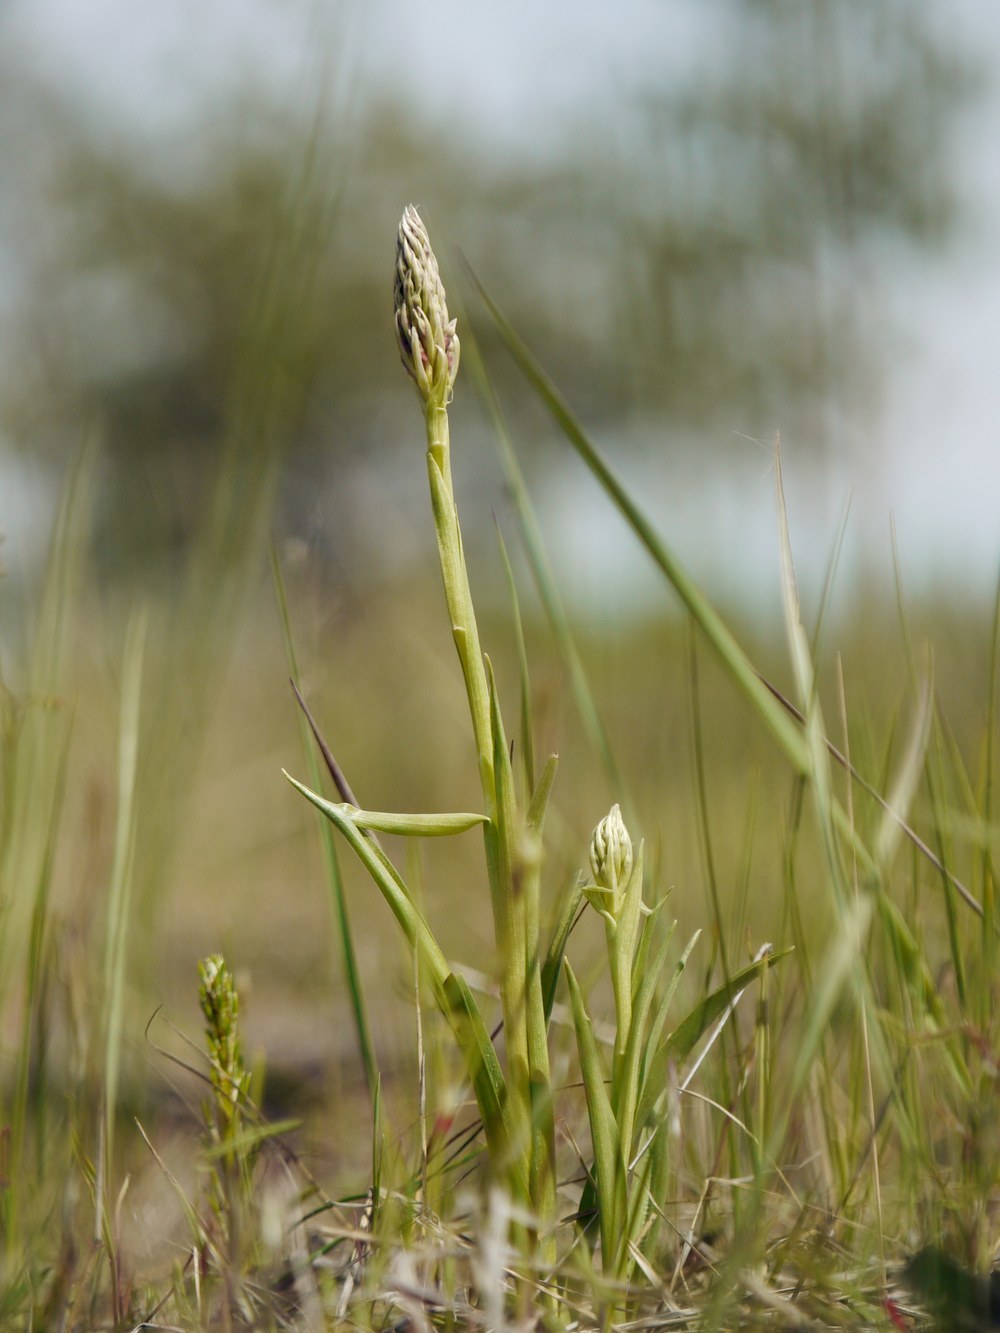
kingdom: Plantae
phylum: Tracheophyta
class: Liliopsida
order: Asparagales
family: Orchidaceae
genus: Anacamptis
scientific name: Anacamptis coriophora
